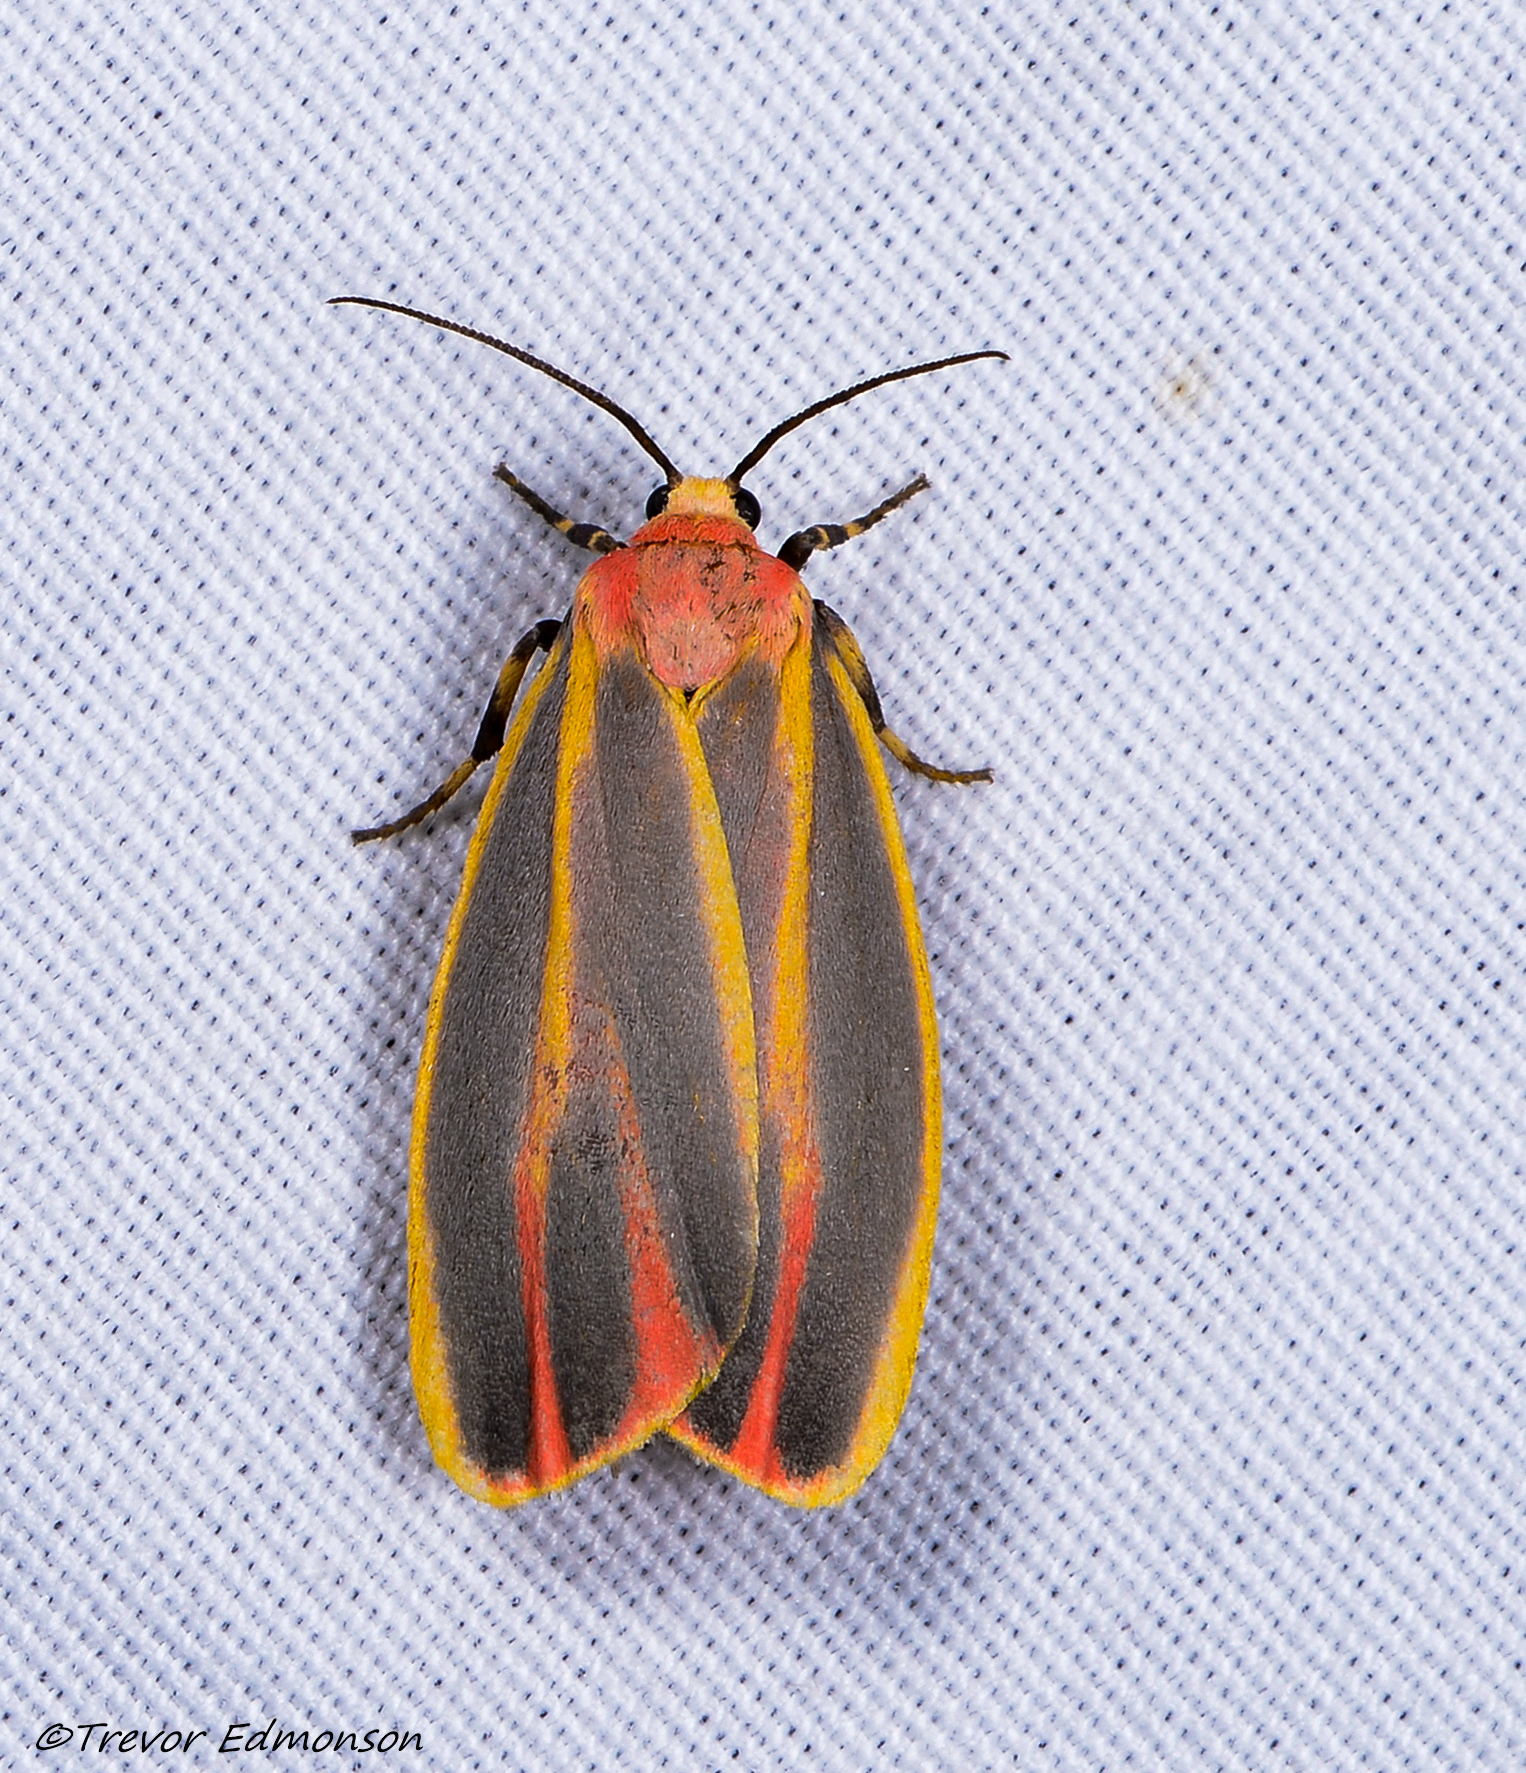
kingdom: Animalia
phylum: Arthropoda
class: Insecta
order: Lepidoptera
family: Erebidae
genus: Hypoprepia
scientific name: Hypoprepia fucosa
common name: Painted lichen moth
